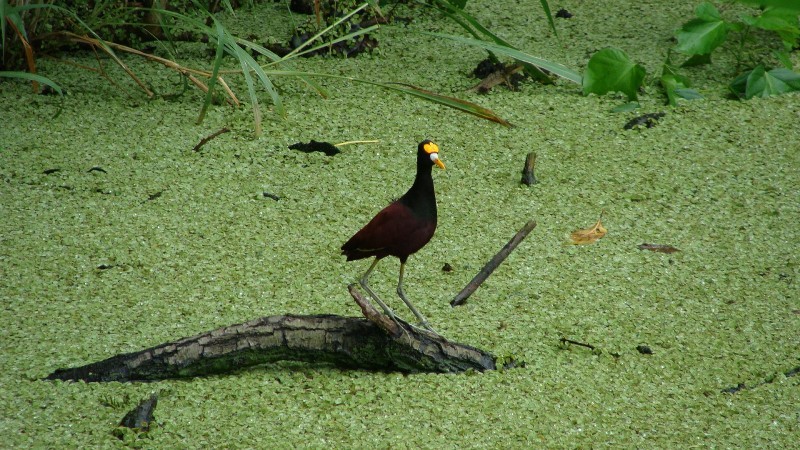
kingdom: Animalia
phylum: Chordata
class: Aves
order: Charadriiformes
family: Jacanidae
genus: Jacana
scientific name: Jacana spinosa
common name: Northern jacana
